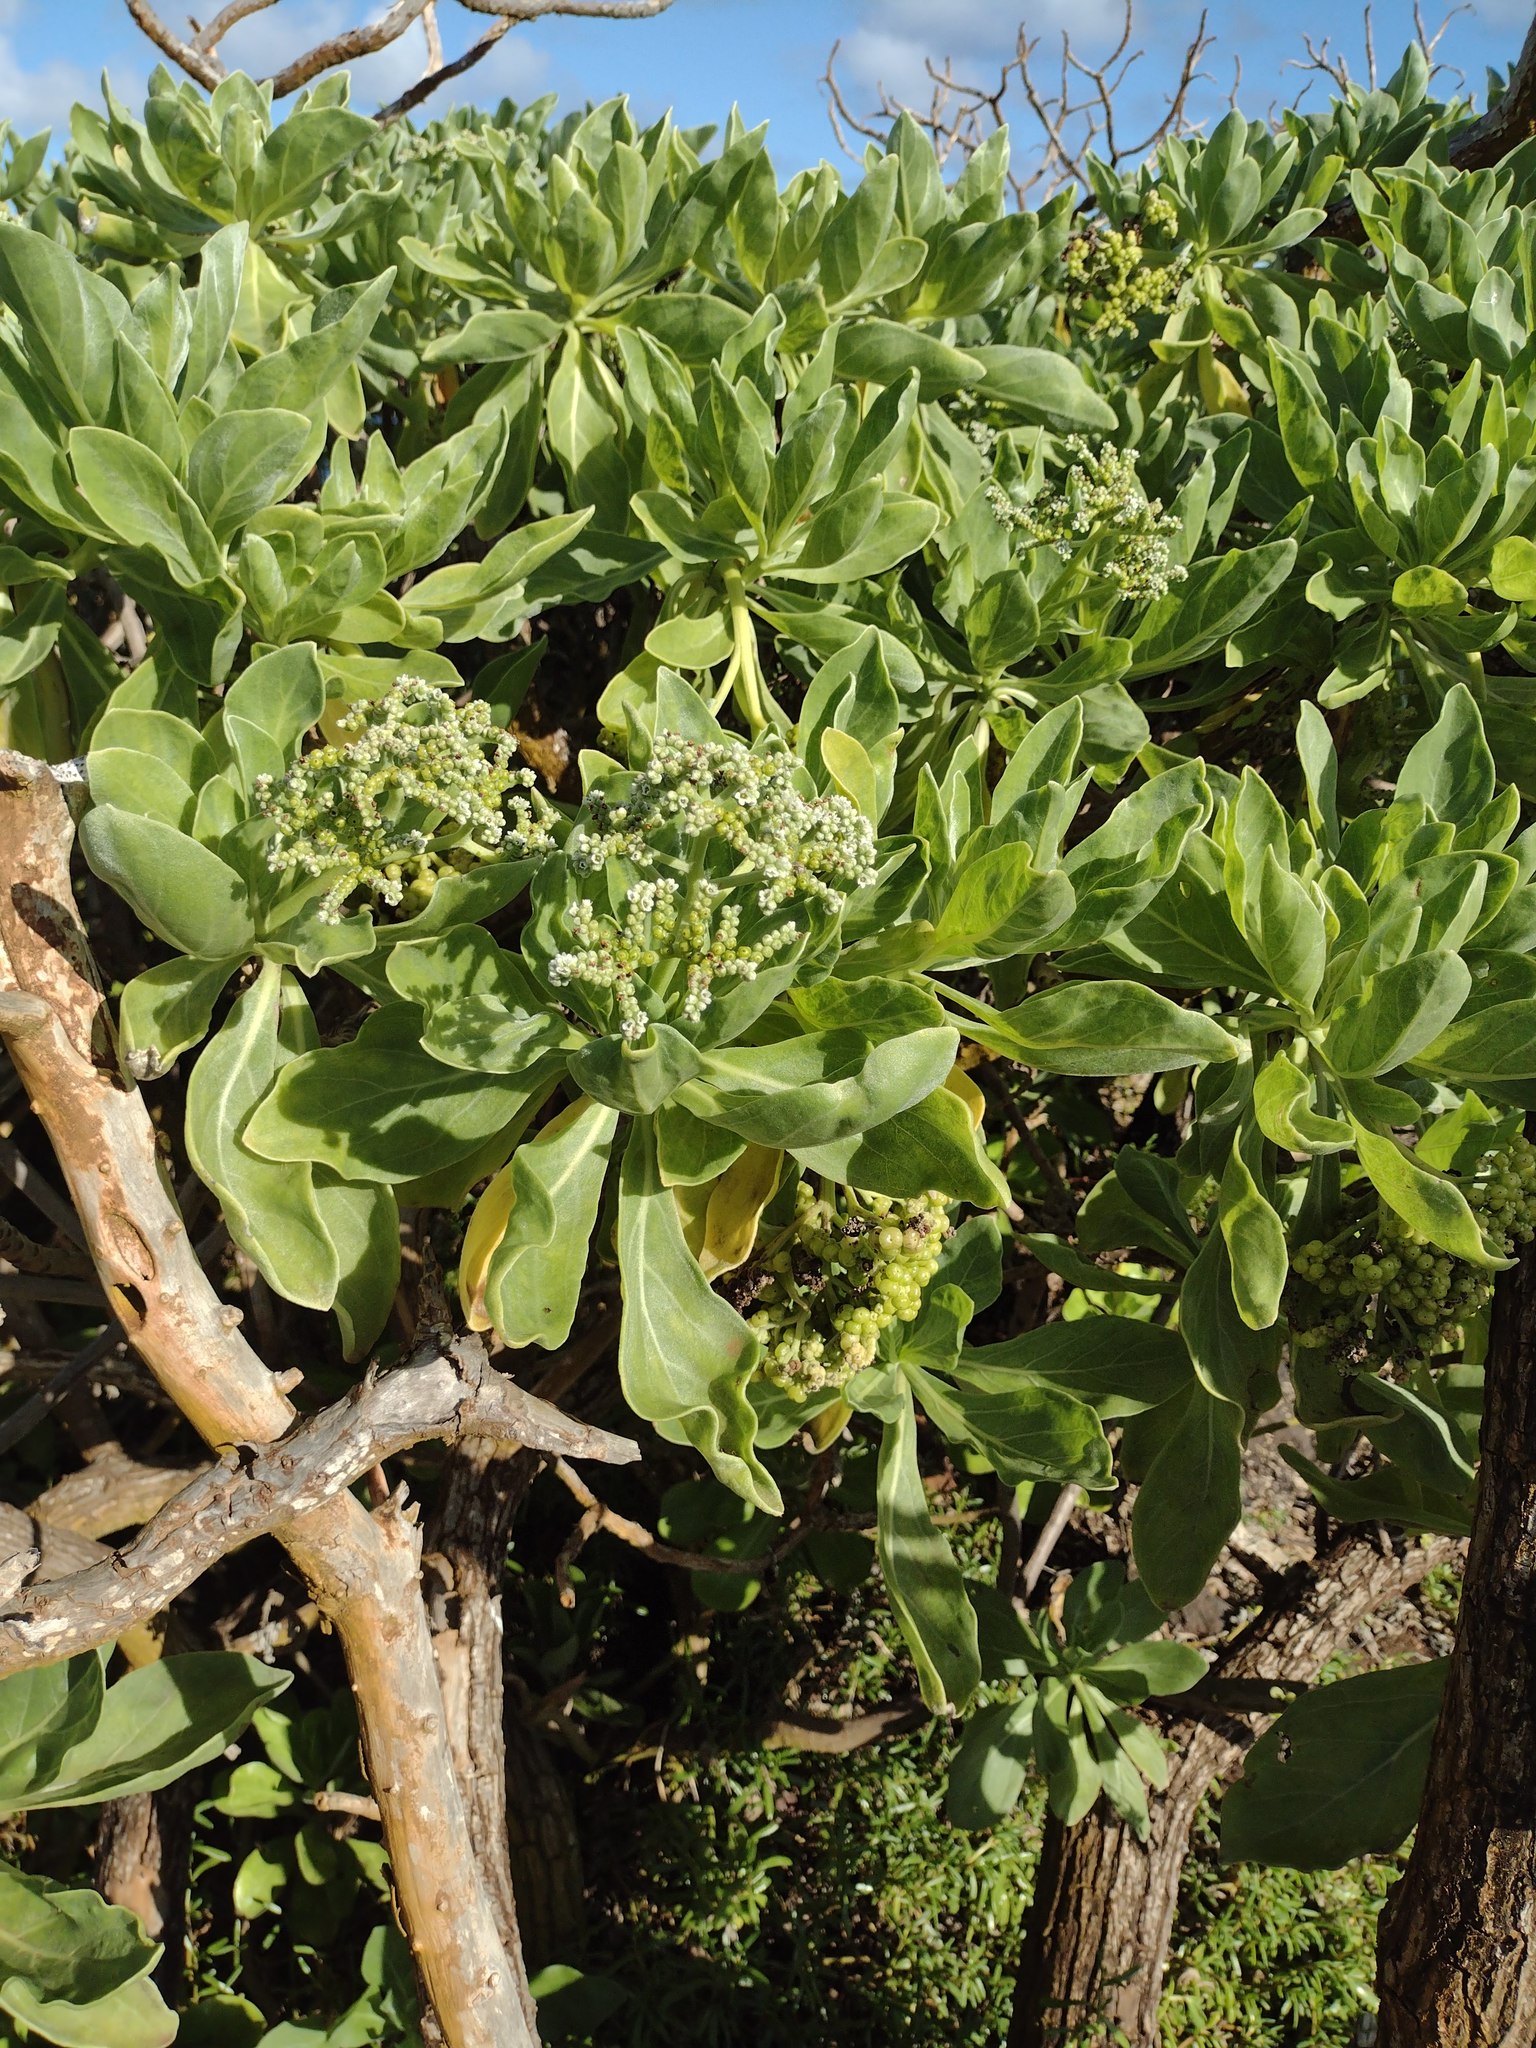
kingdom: Plantae
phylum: Tracheophyta
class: Magnoliopsida
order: Boraginales
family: Heliotropiaceae
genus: Heliotropium
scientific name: Heliotropium velutinum
